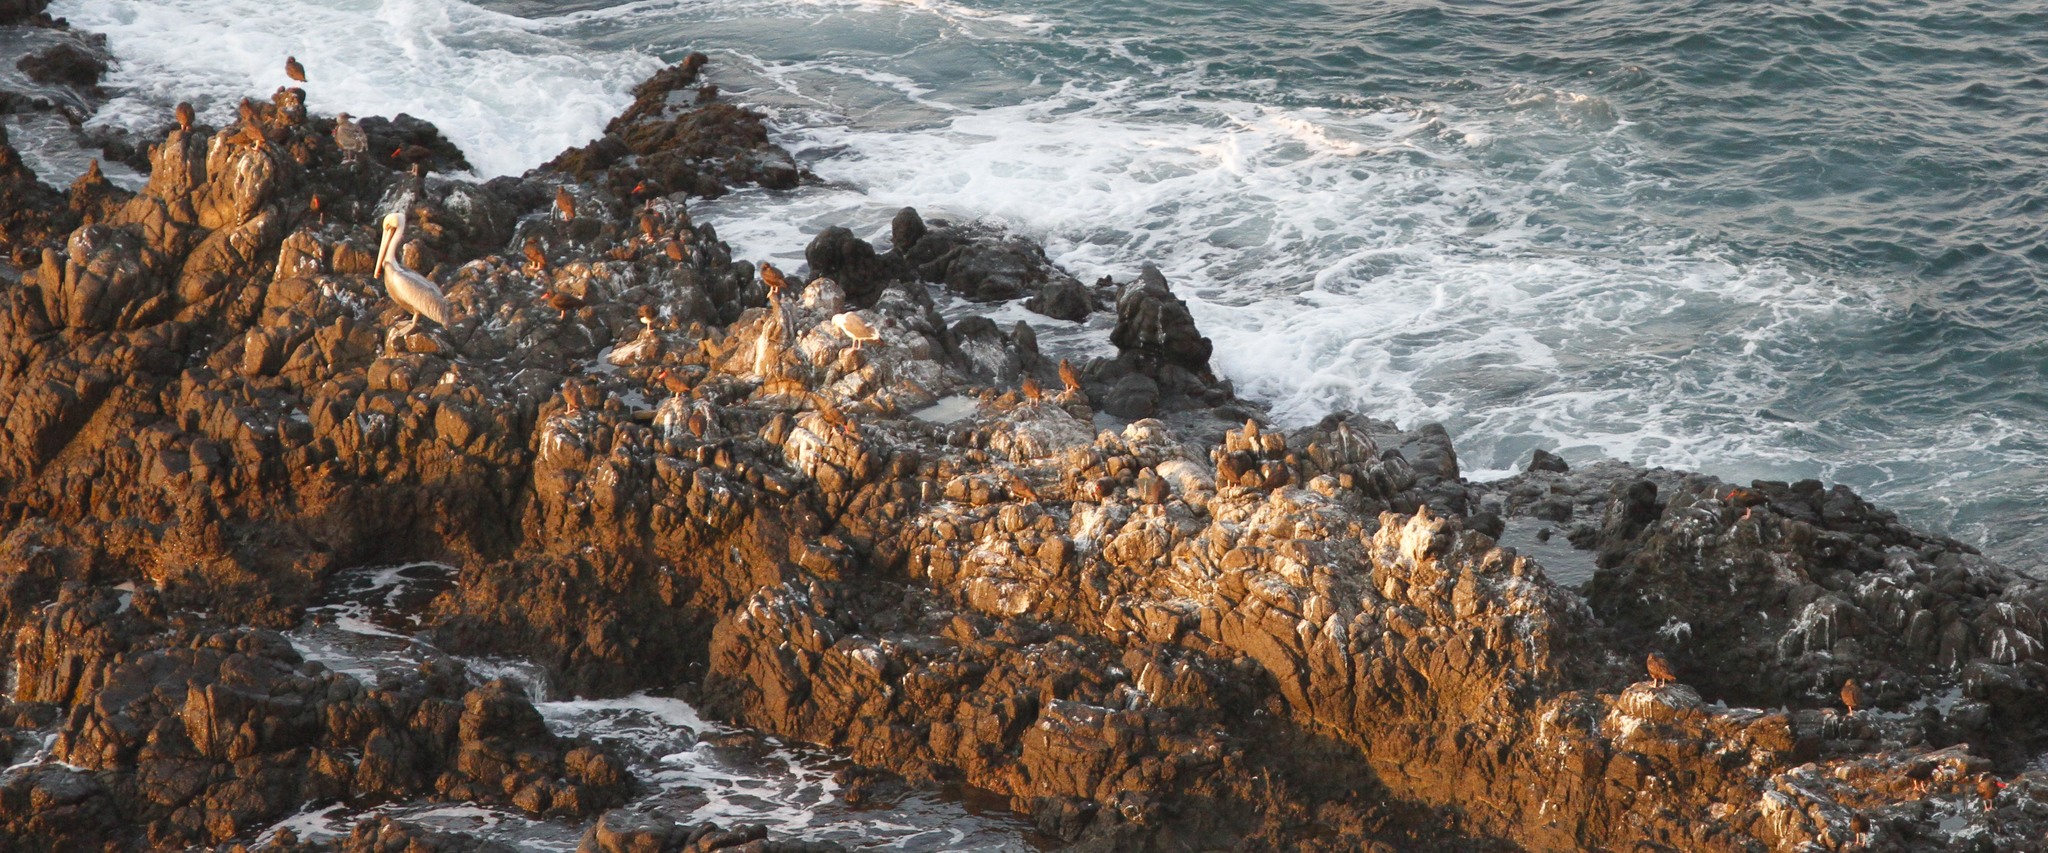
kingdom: Animalia
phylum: Chordata
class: Aves
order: Charadriiformes
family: Haematopodidae
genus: Haematopus
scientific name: Haematopus bachmani
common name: Black oystercatcher
